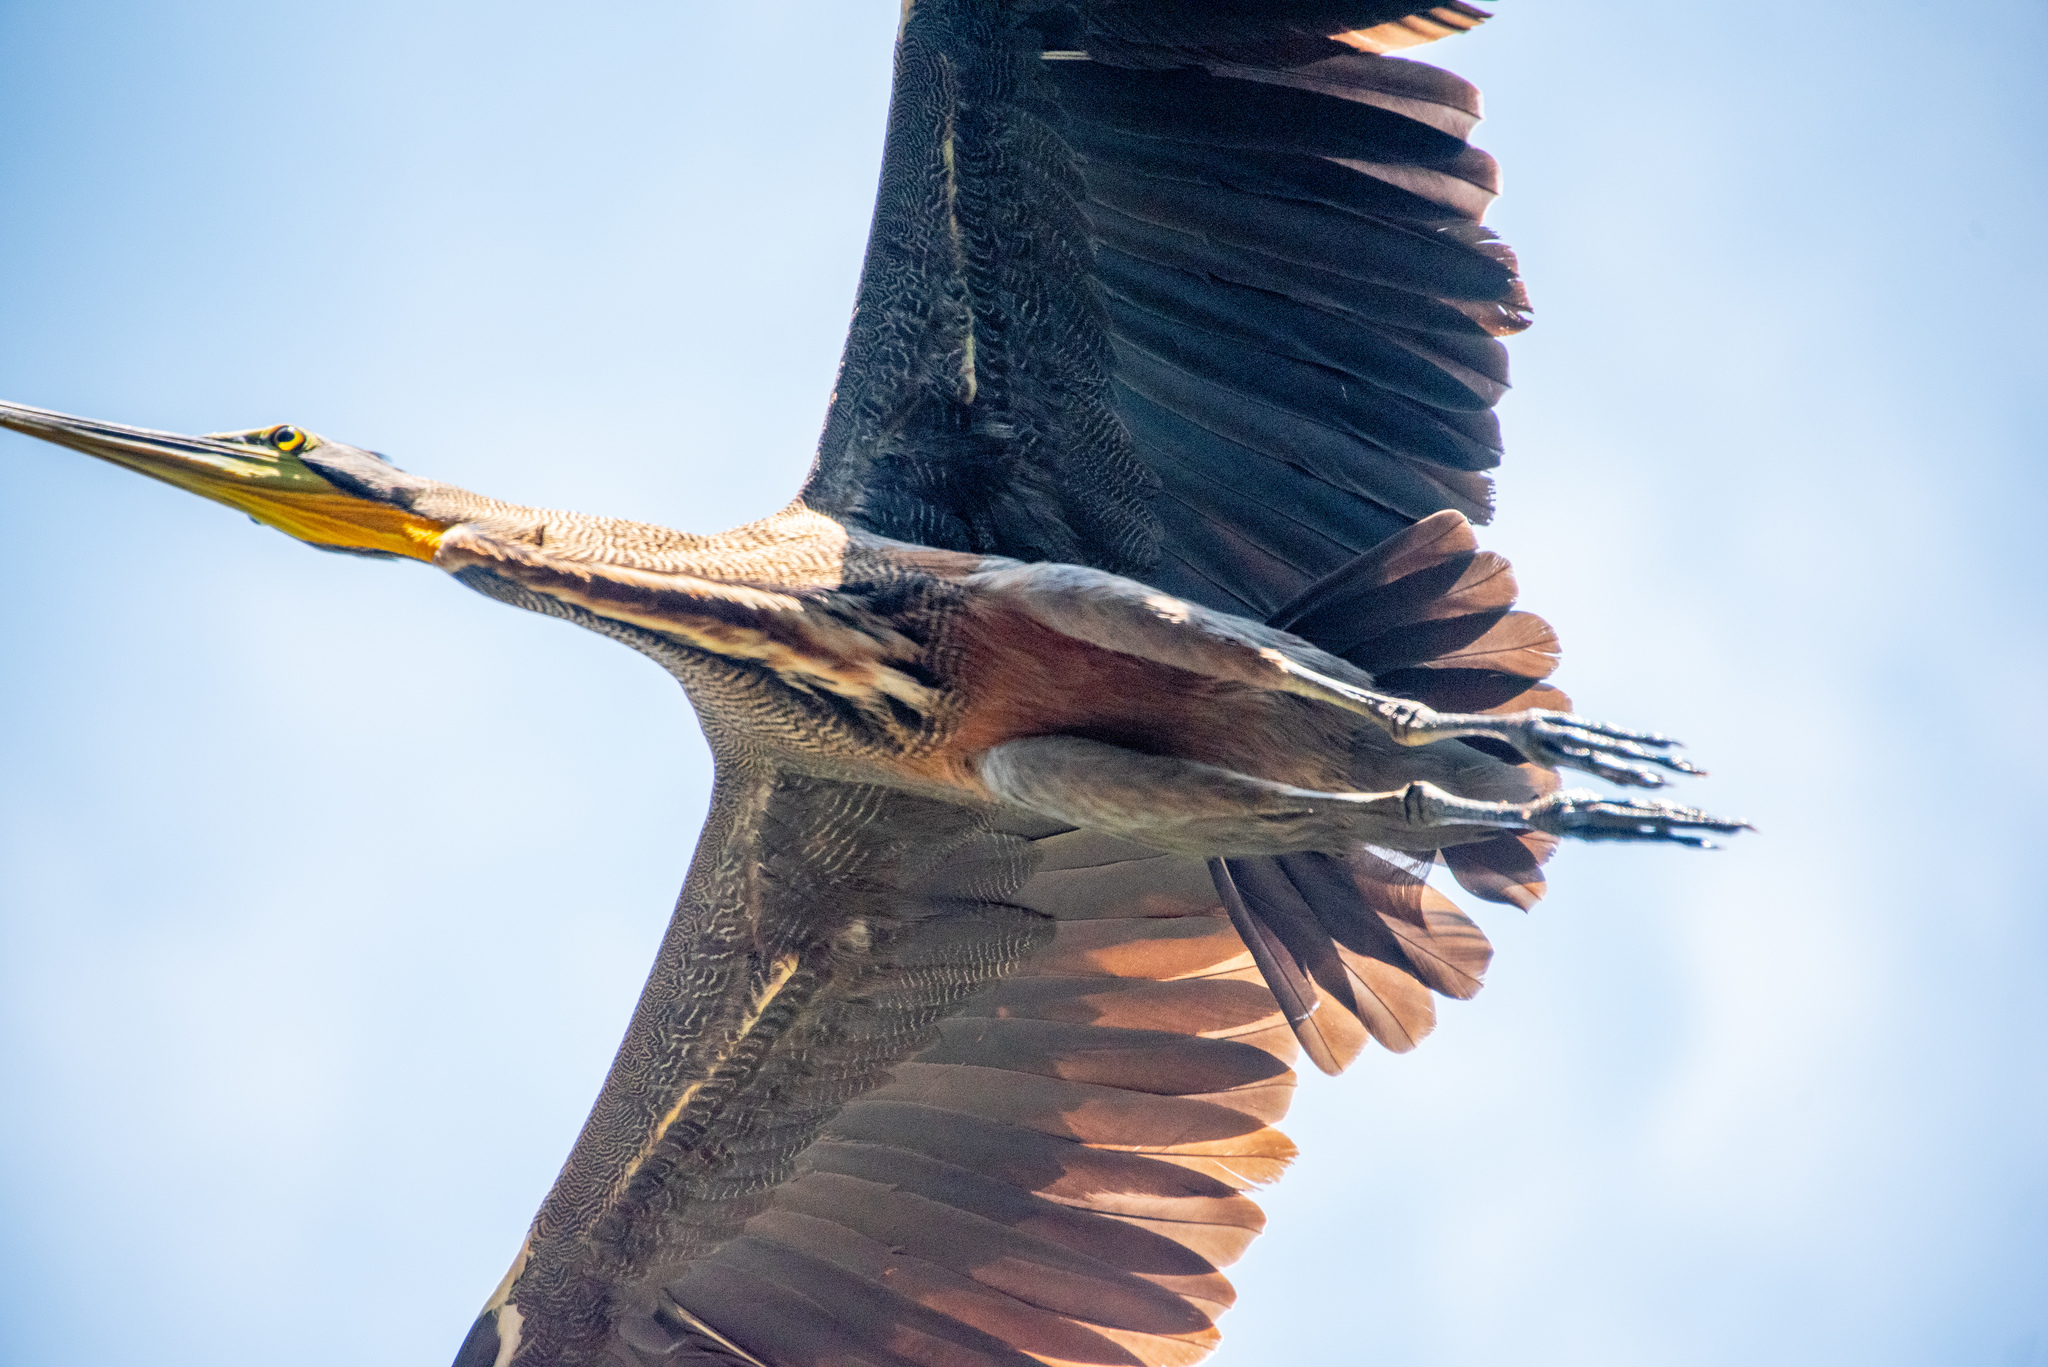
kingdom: Animalia
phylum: Chordata
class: Aves
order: Pelecaniformes
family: Ardeidae
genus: Tigrisoma
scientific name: Tigrisoma mexicanum
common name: Bare-throated tiger-heron
